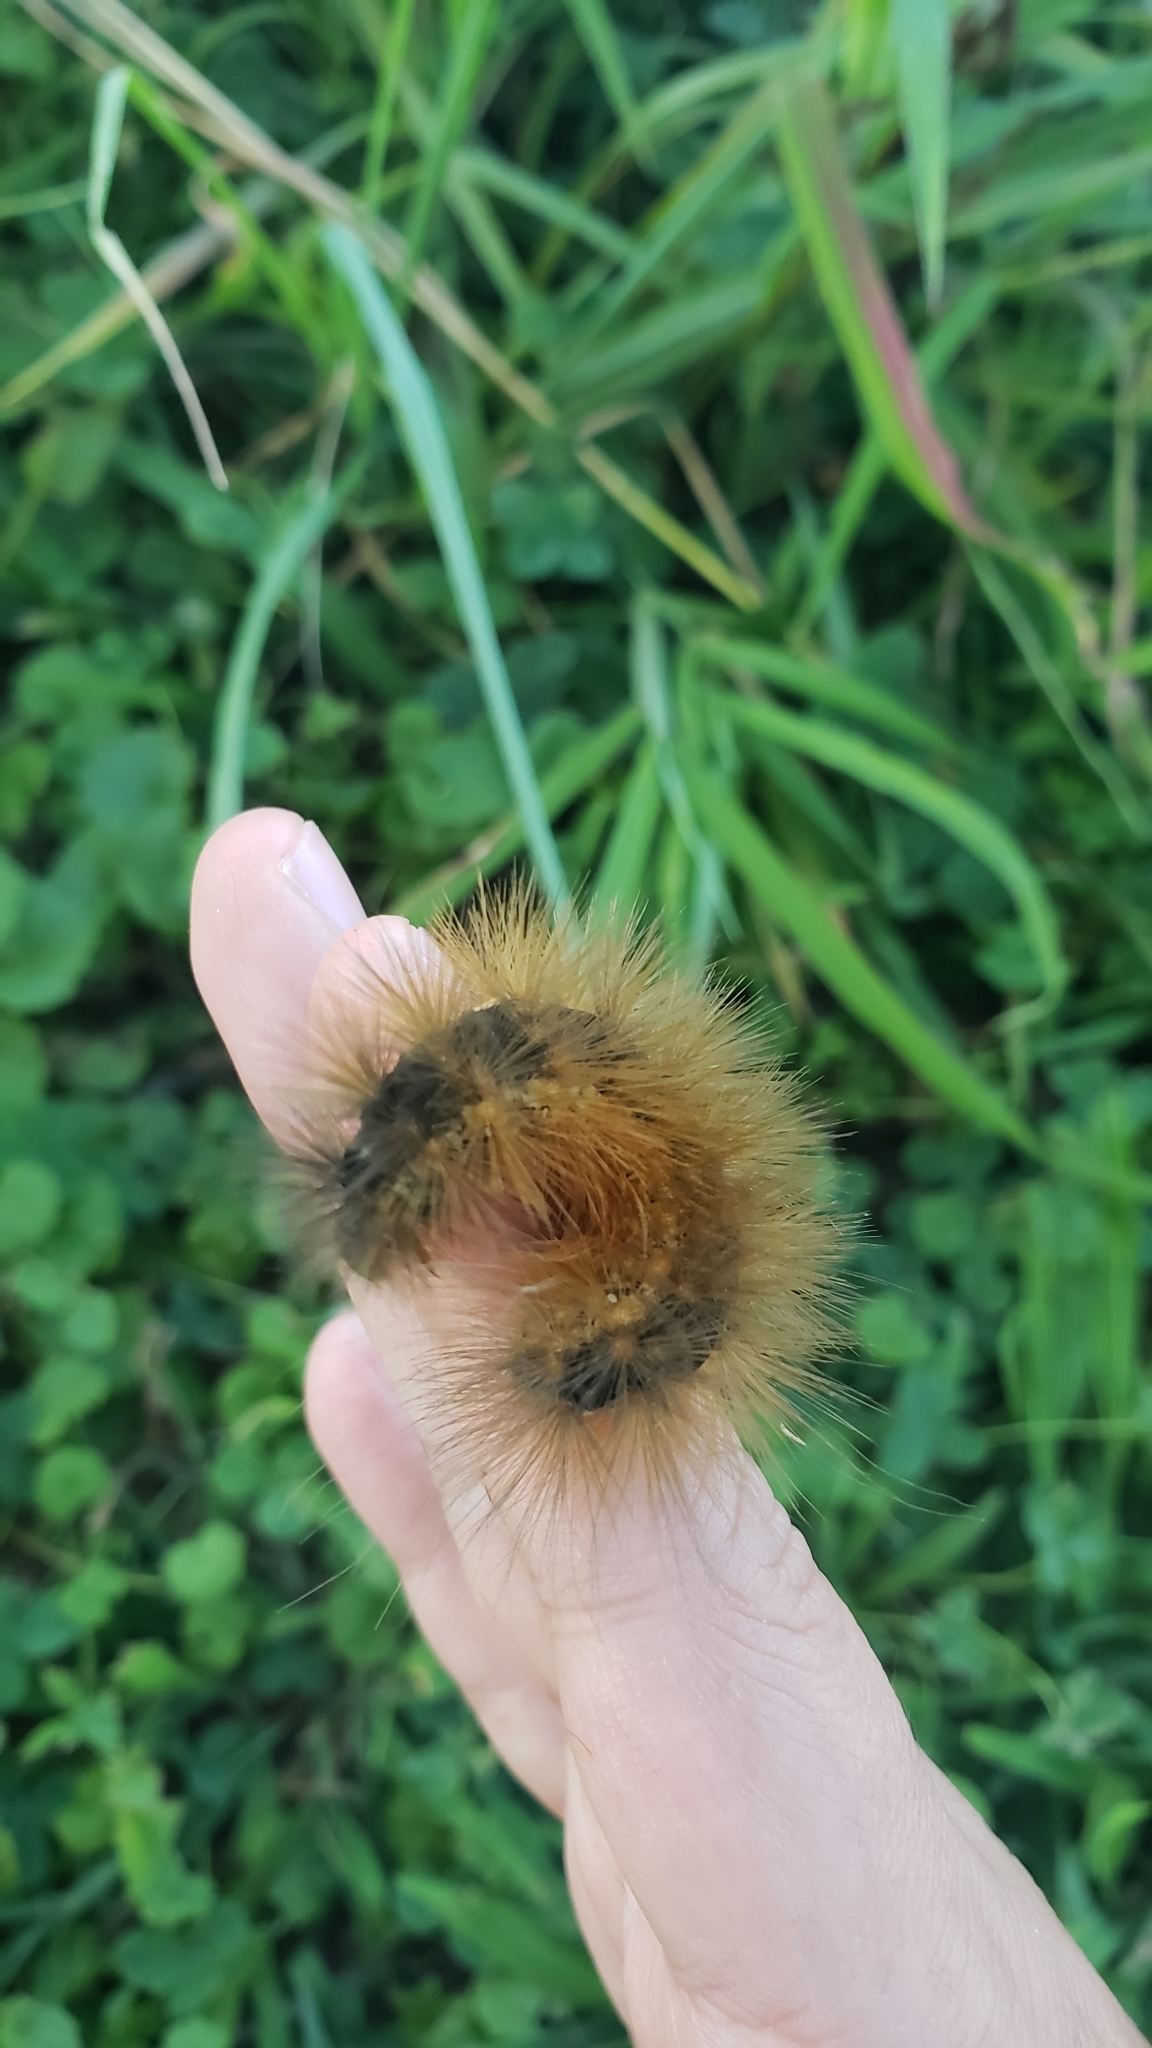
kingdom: Animalia
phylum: Arthropoda
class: Insecta
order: Lepidoptera
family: Erebidae
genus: Estigmene
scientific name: Estigmene acrea
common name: Salt marsh moth
